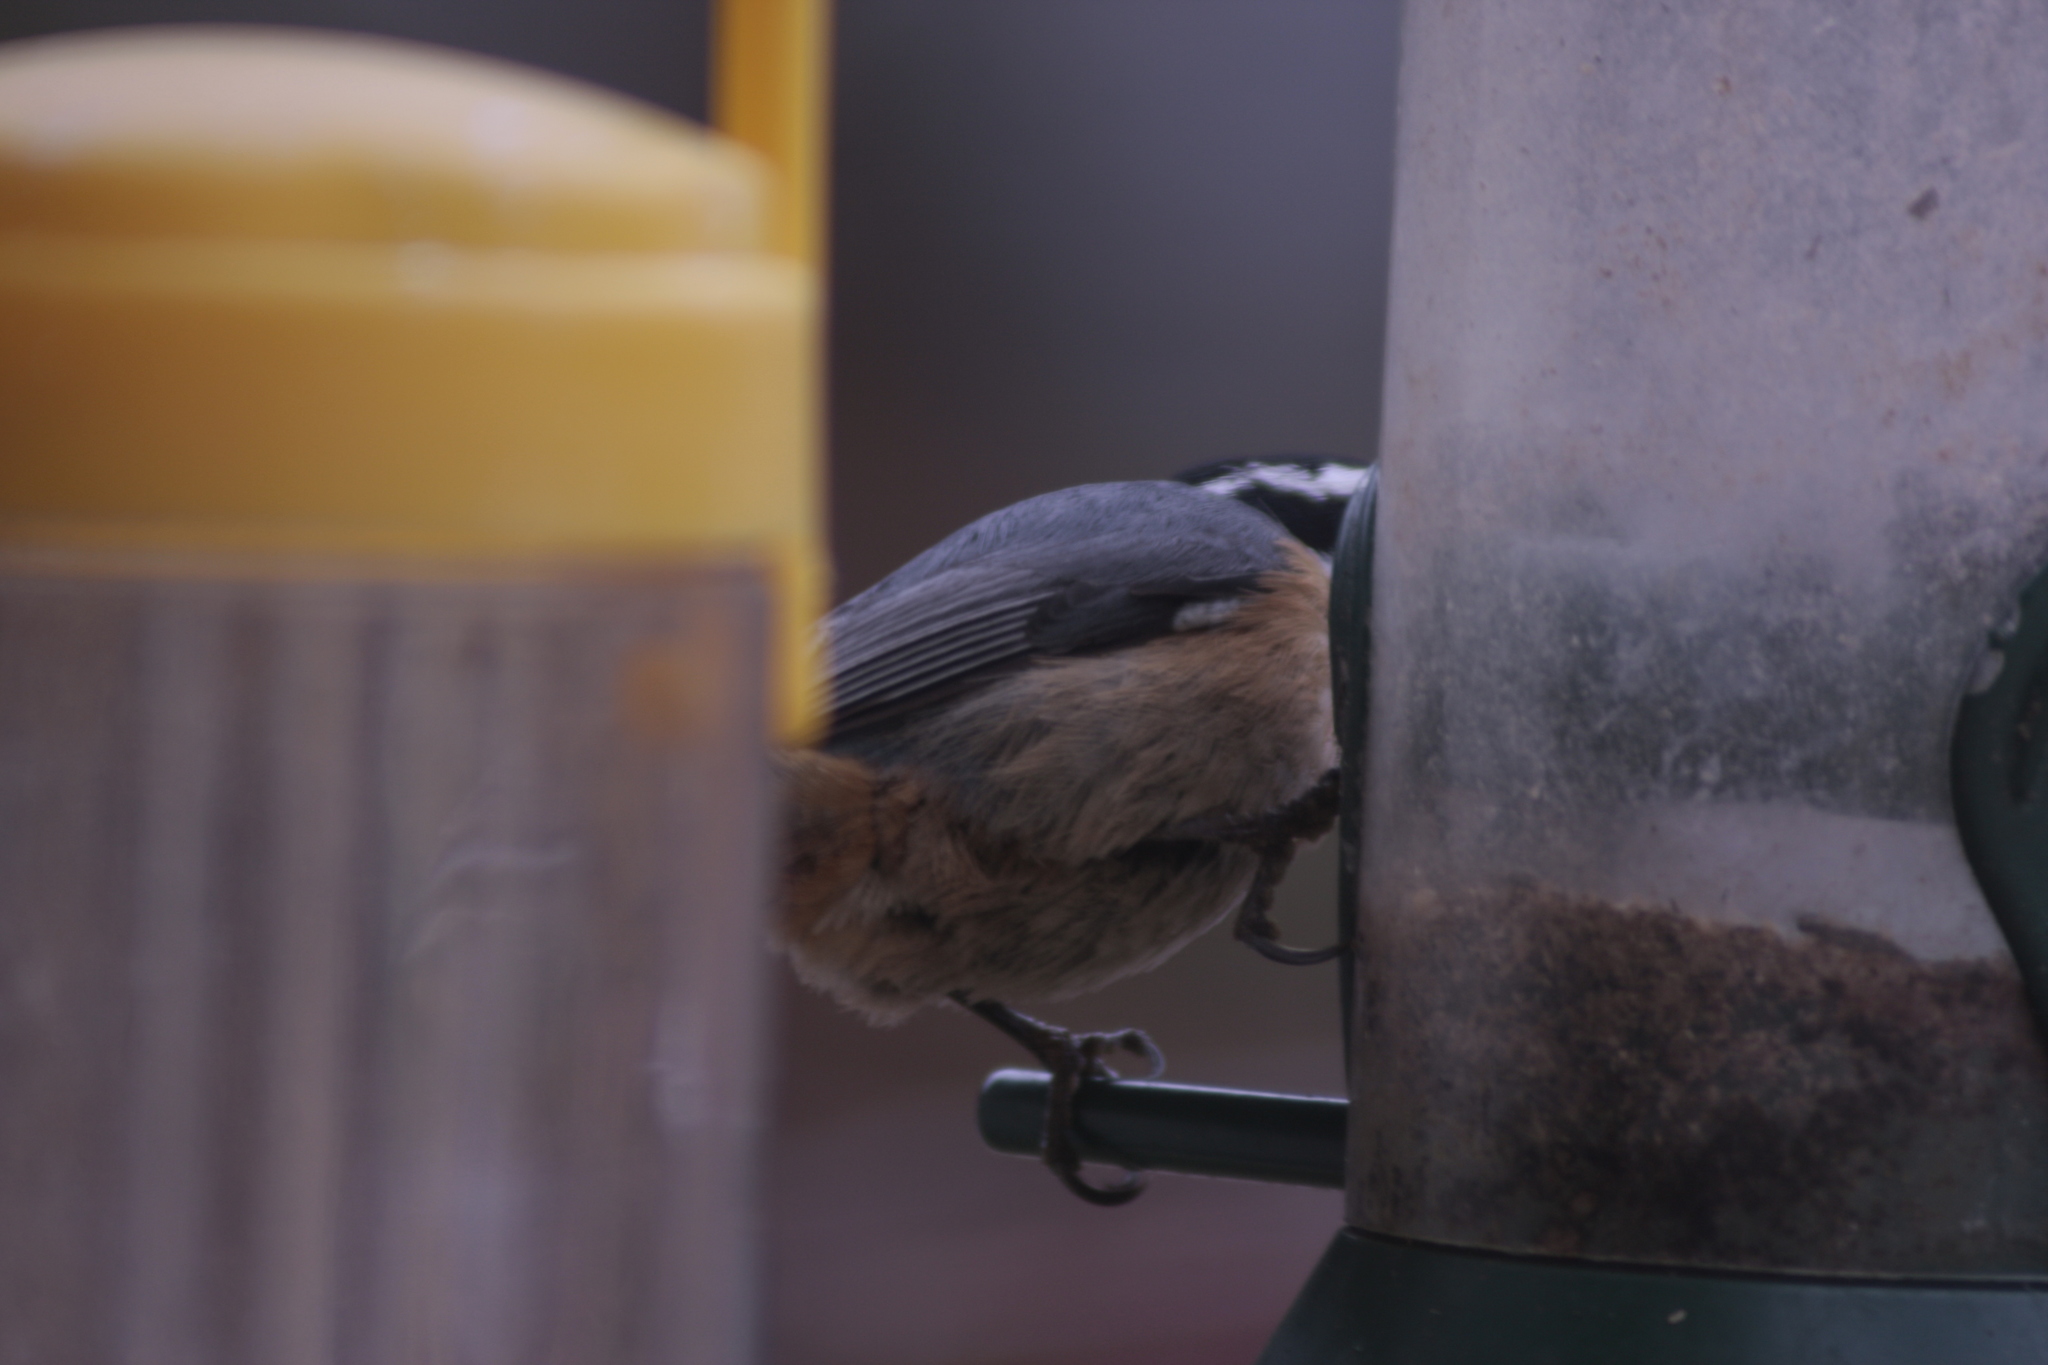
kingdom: Animalia
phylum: Chordata
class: Aves
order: Passeriformes
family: Sittidae
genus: Sitta
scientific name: Sitta canadensis
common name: Red-breasted nuthatch
